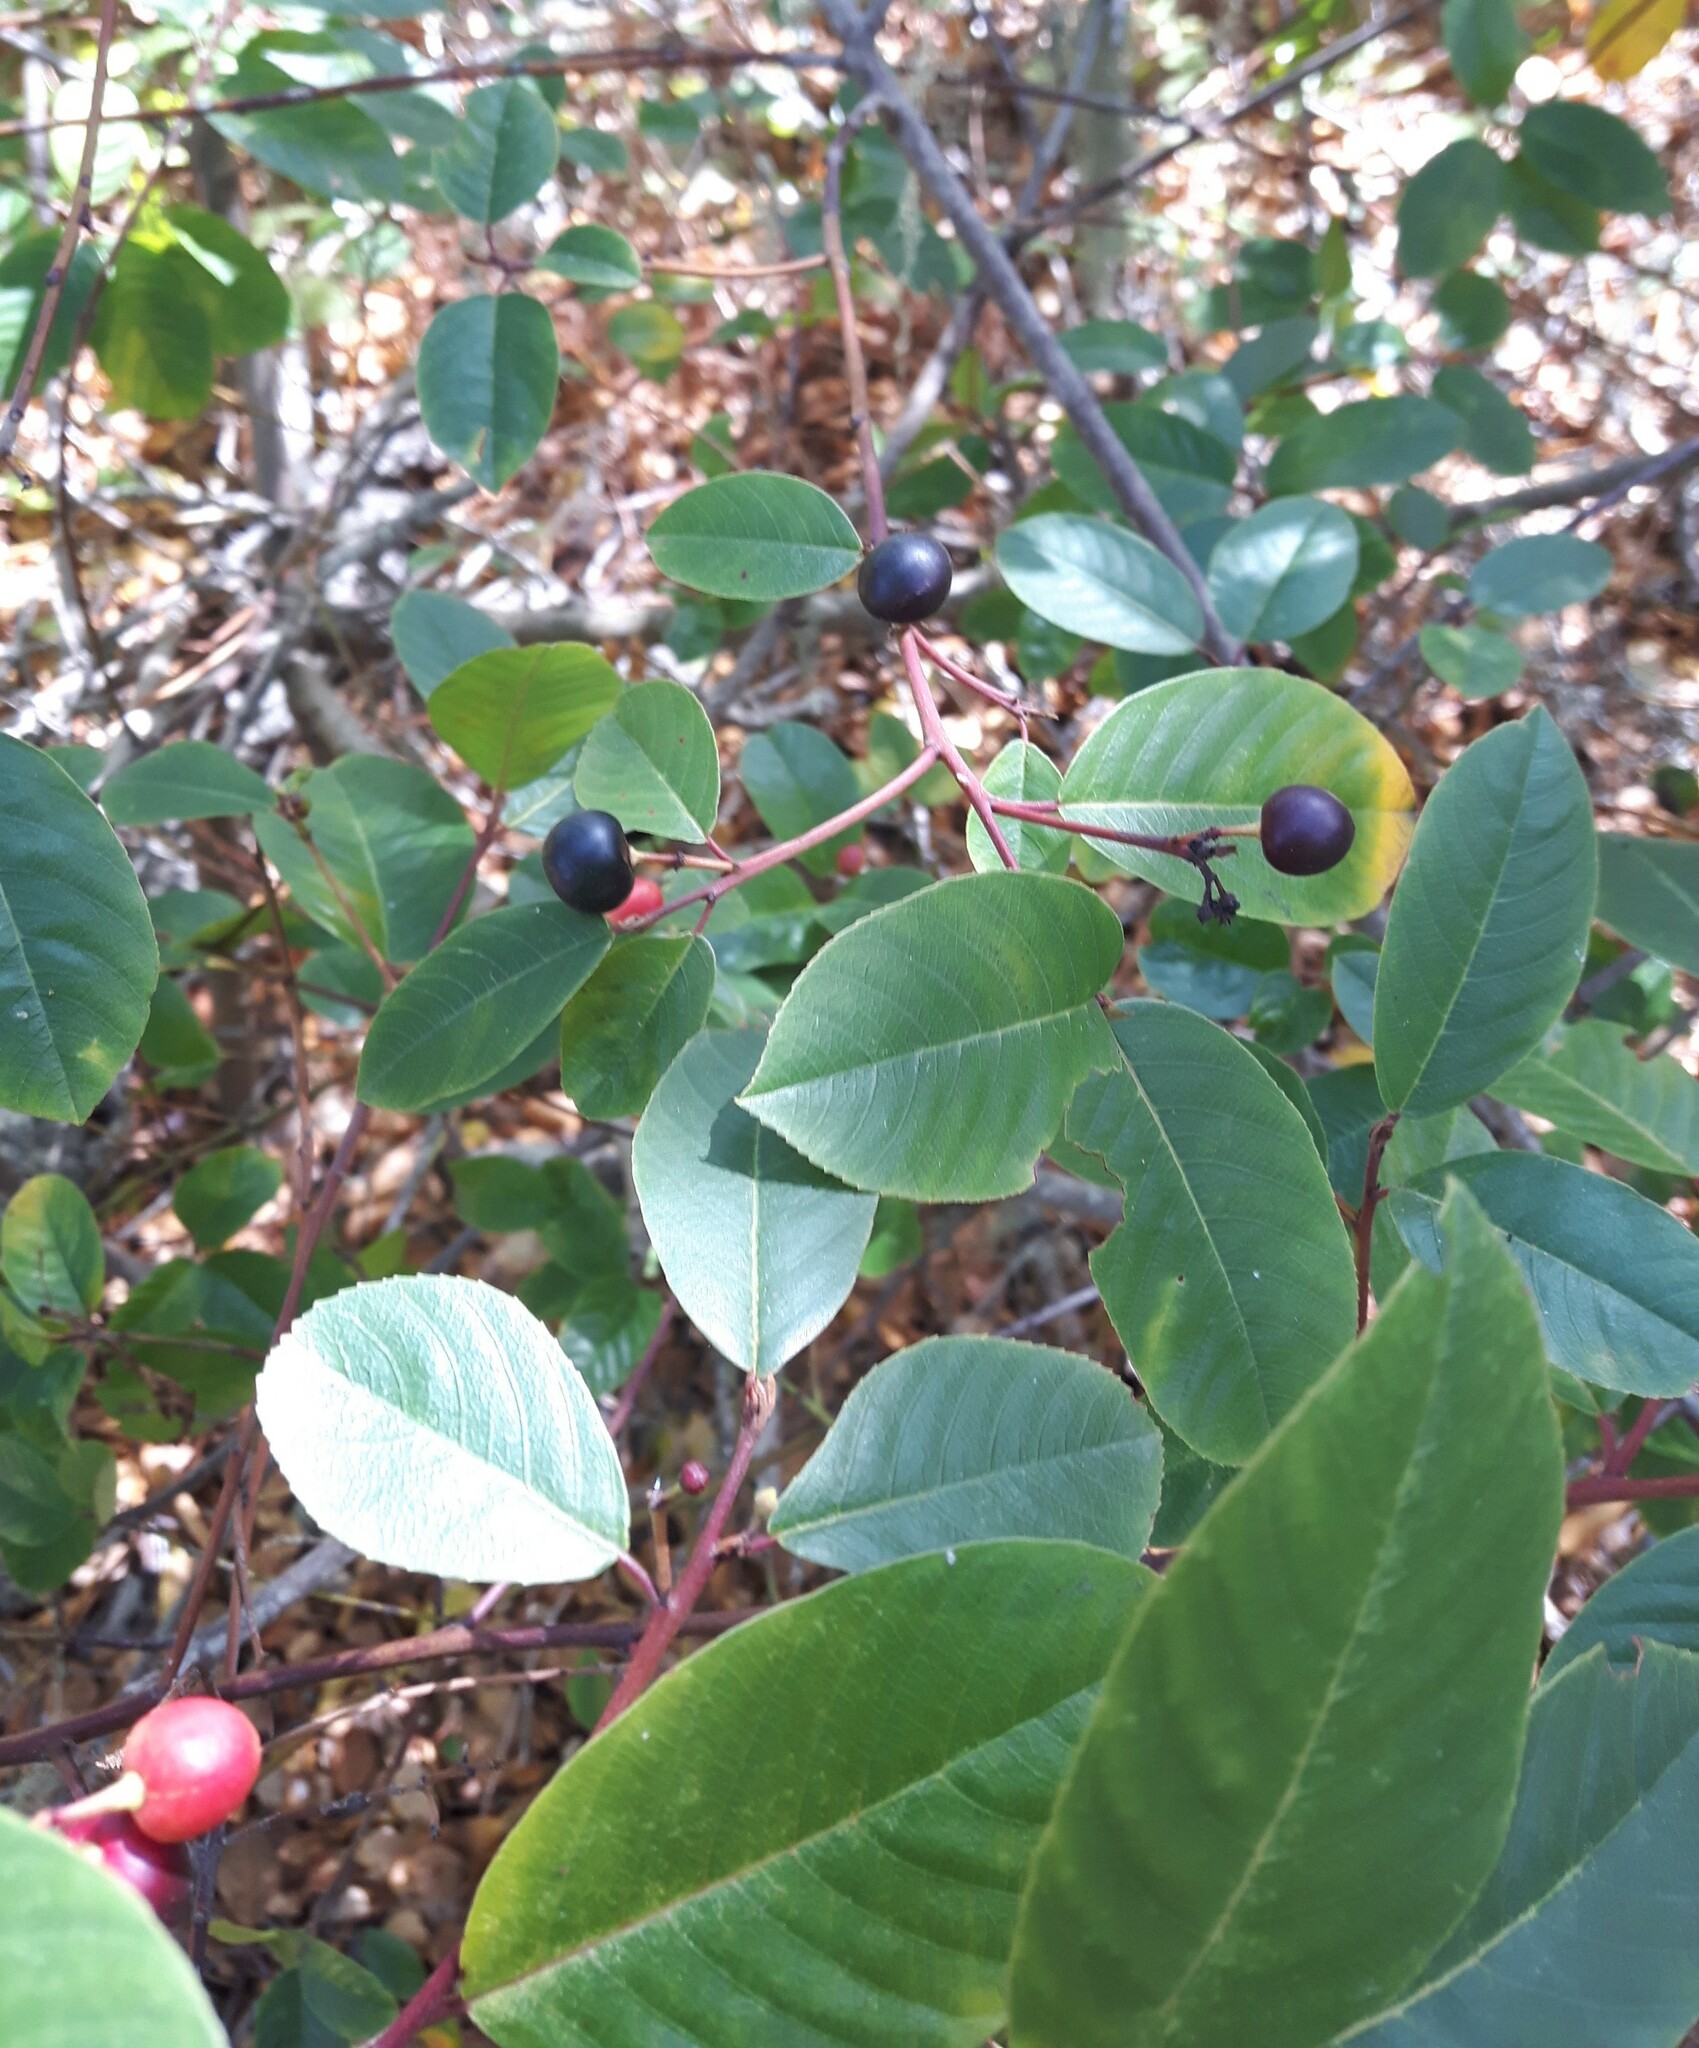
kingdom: Plantae
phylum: Tracheophyta
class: Magnoliopsida
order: Rosales
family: Rhamnaceae
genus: Frangula
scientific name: Frangula californica
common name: California buckthorn
